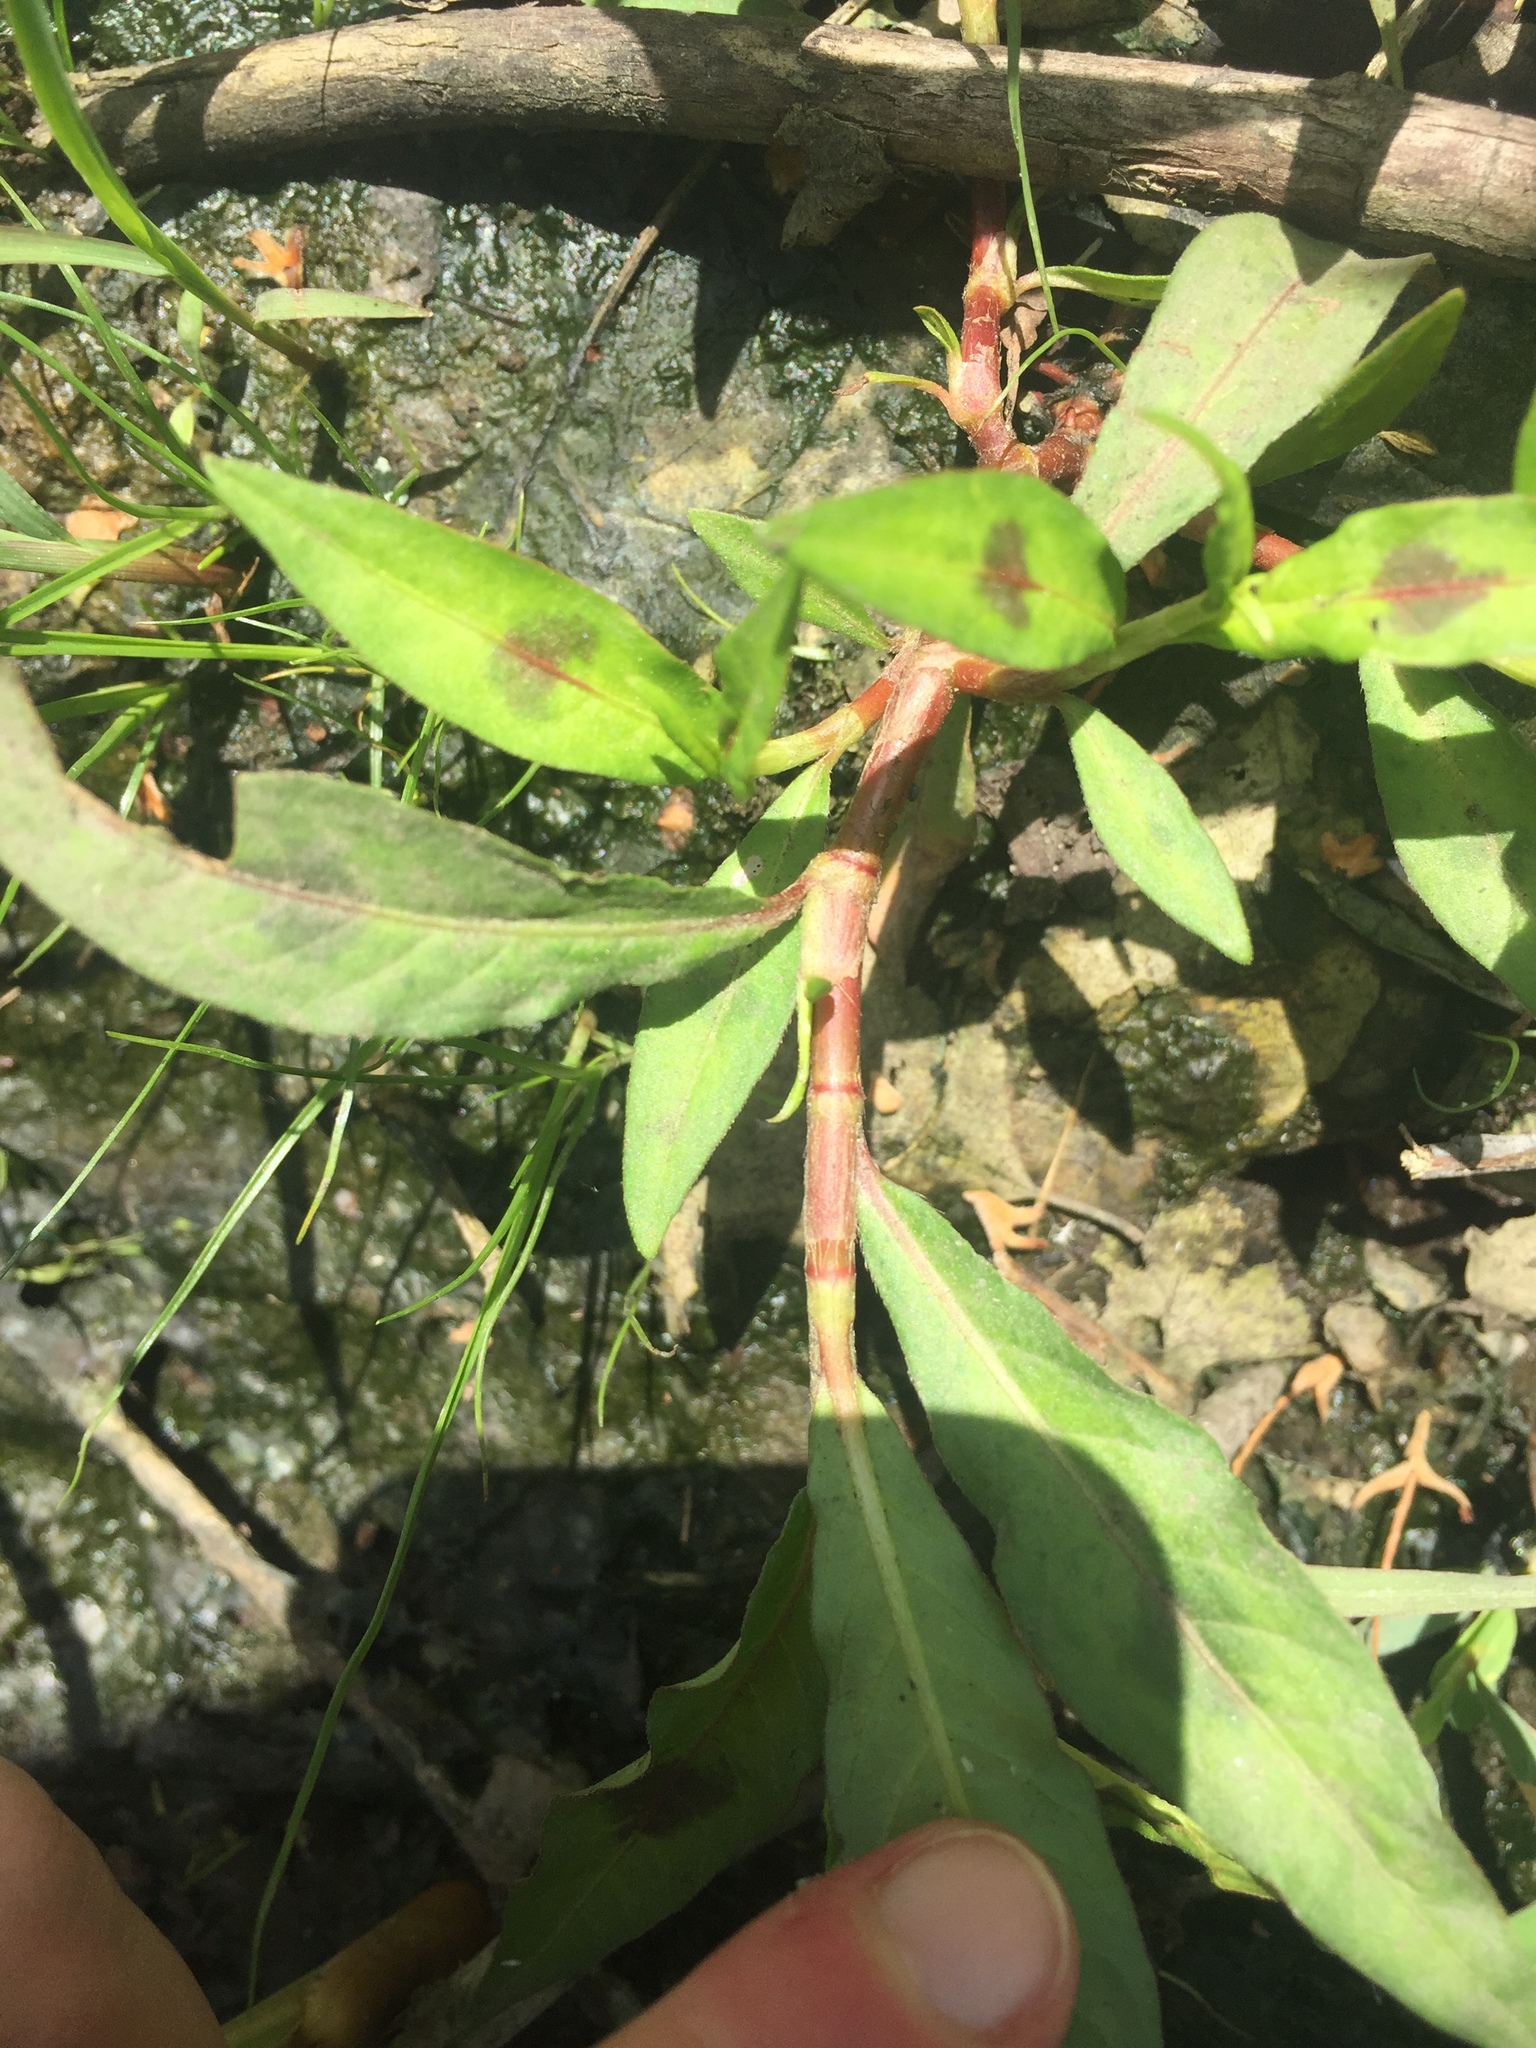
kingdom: Plantae
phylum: Tracheophyta
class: Magnoliopsida
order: Caryophyllales
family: Polygonaceae
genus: Persicaria
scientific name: Persicaria maculosa
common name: Redshank
